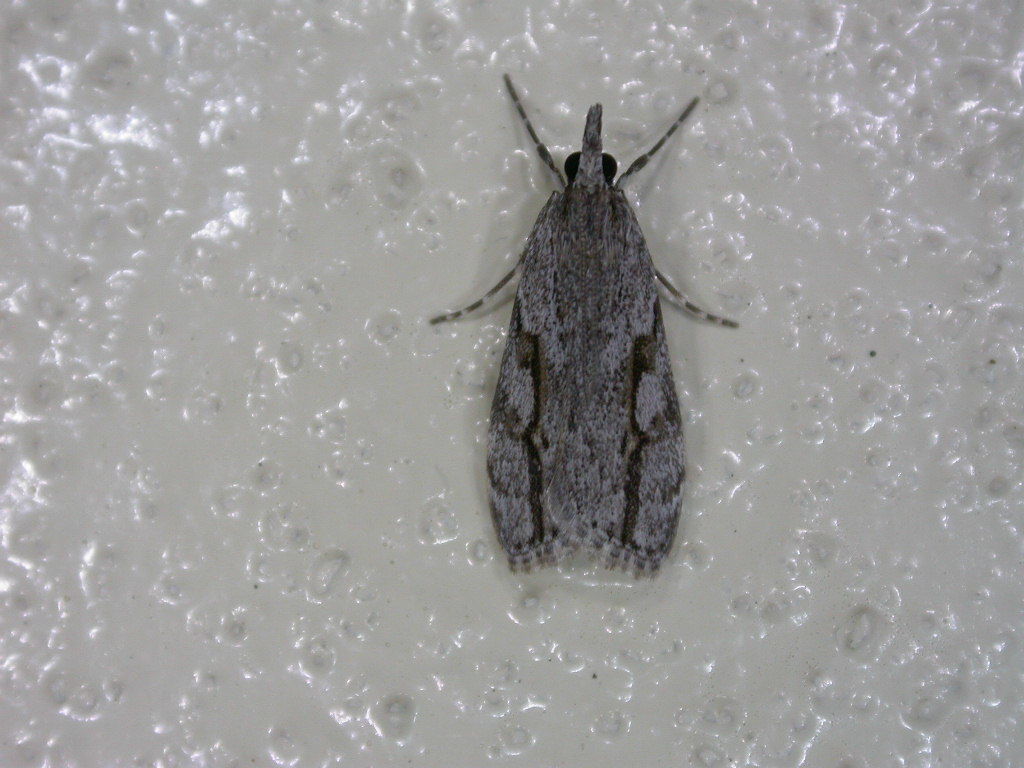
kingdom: Animalia
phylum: Arthropoda
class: Insecta
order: Lepidoptera
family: Crambidae
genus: Eudonia
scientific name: Eudonia bisinualis
